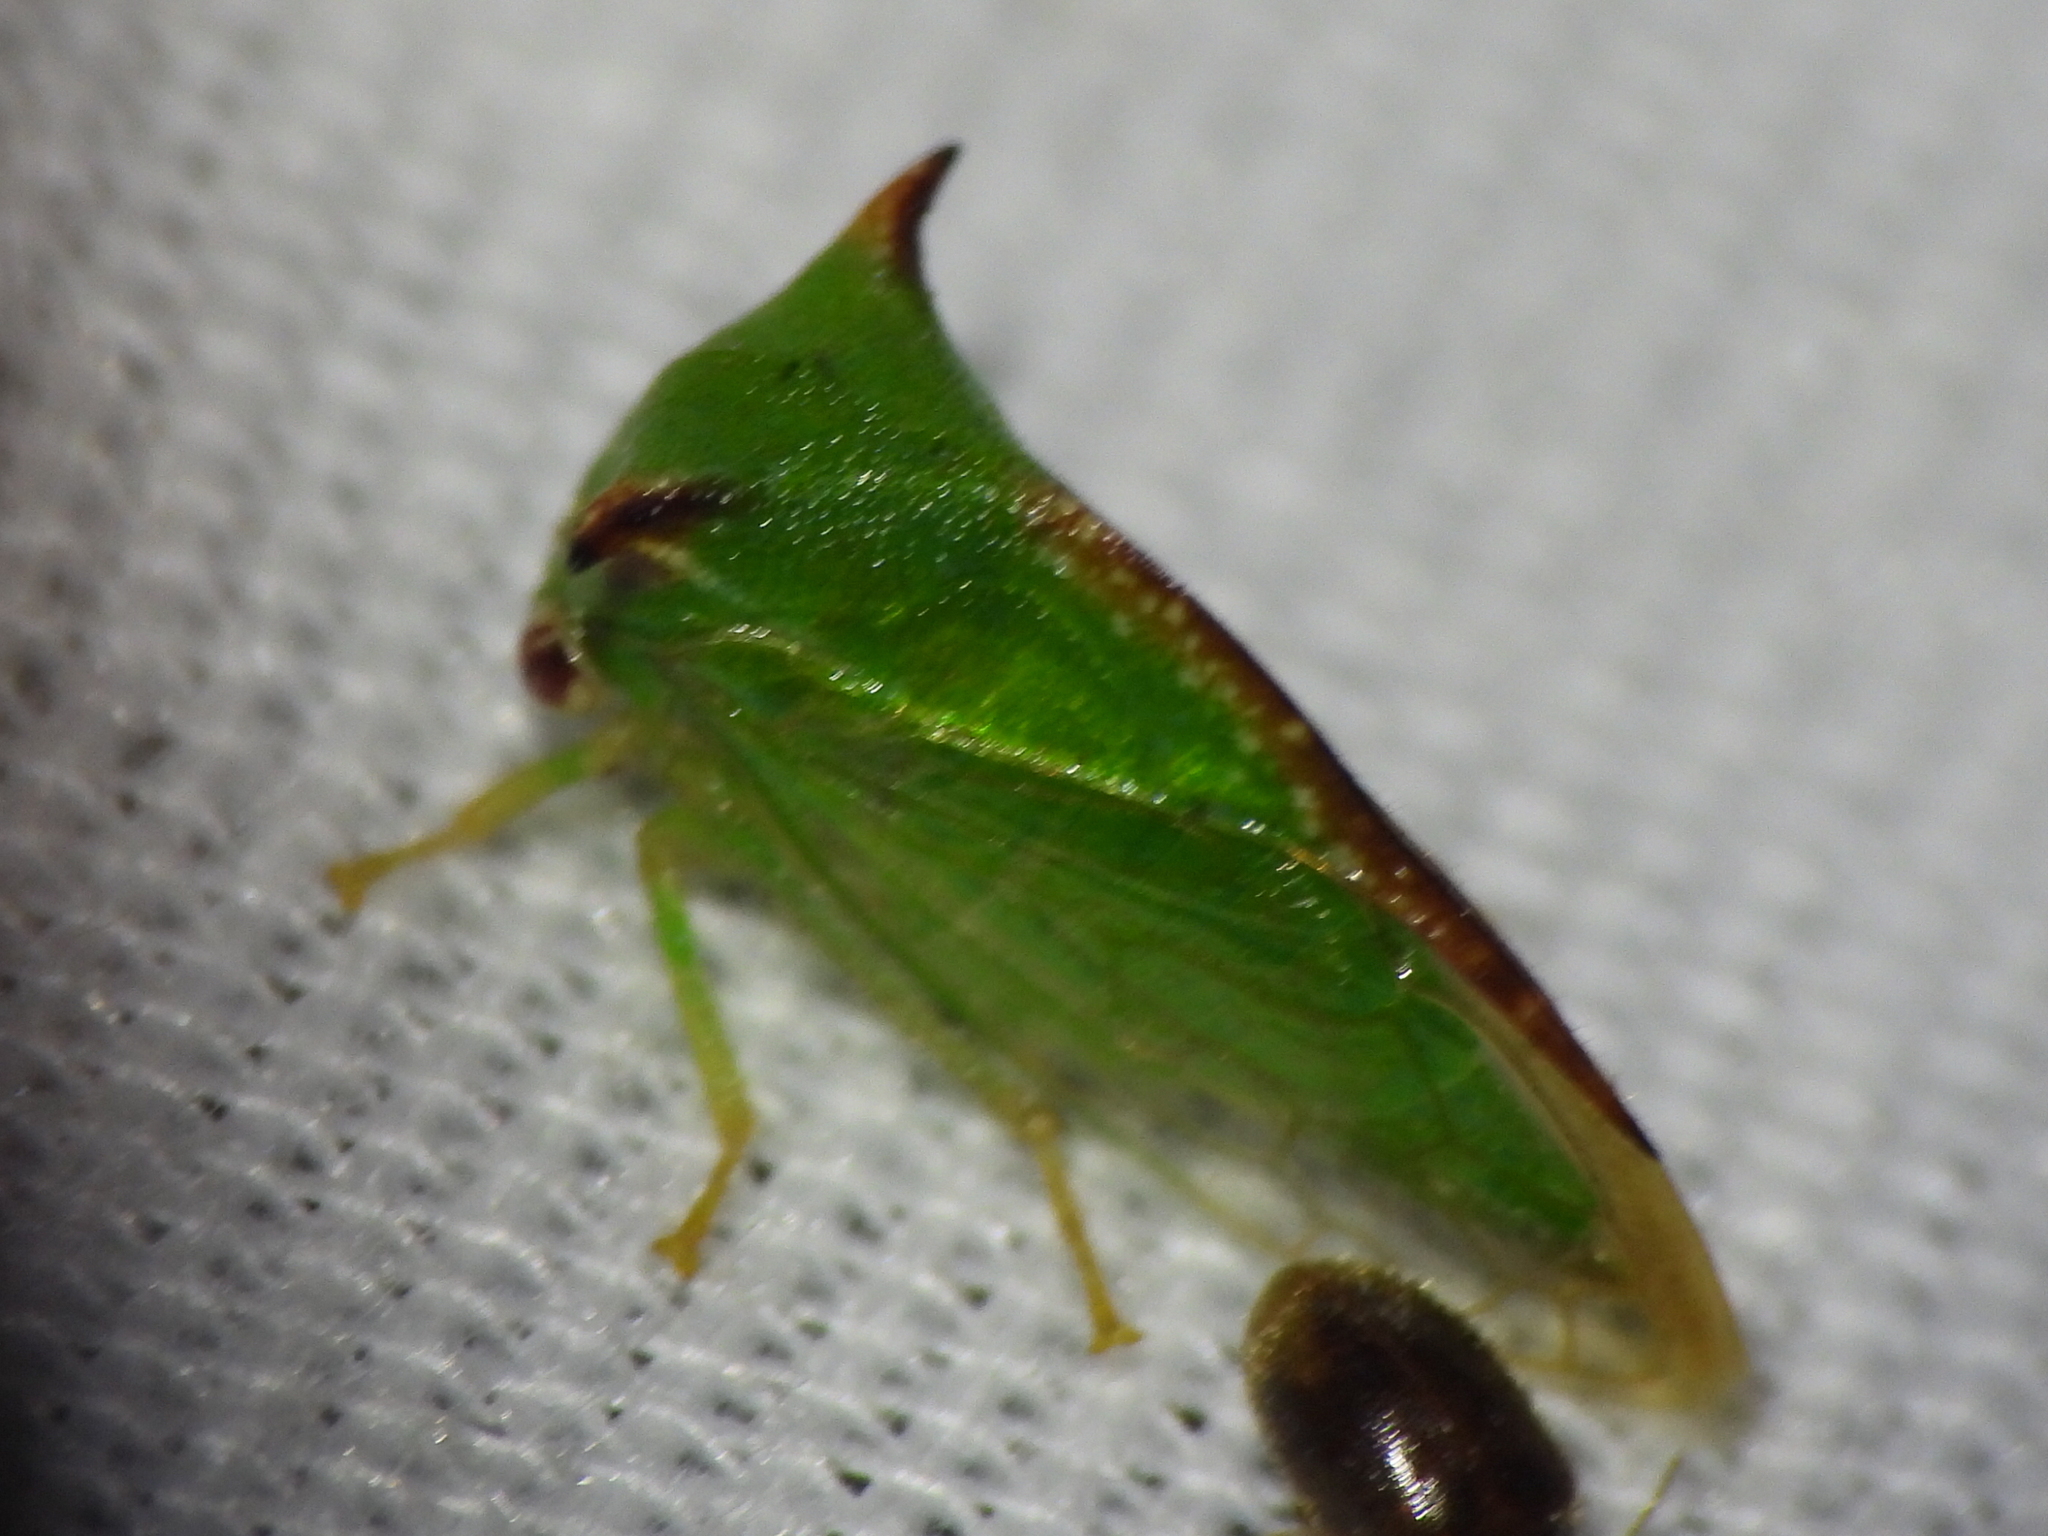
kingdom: Animalia
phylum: Arthropoda
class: Insecta
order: Hemiptera
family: Membracidae
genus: Stictocephala
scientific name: Stictocephala militaris
